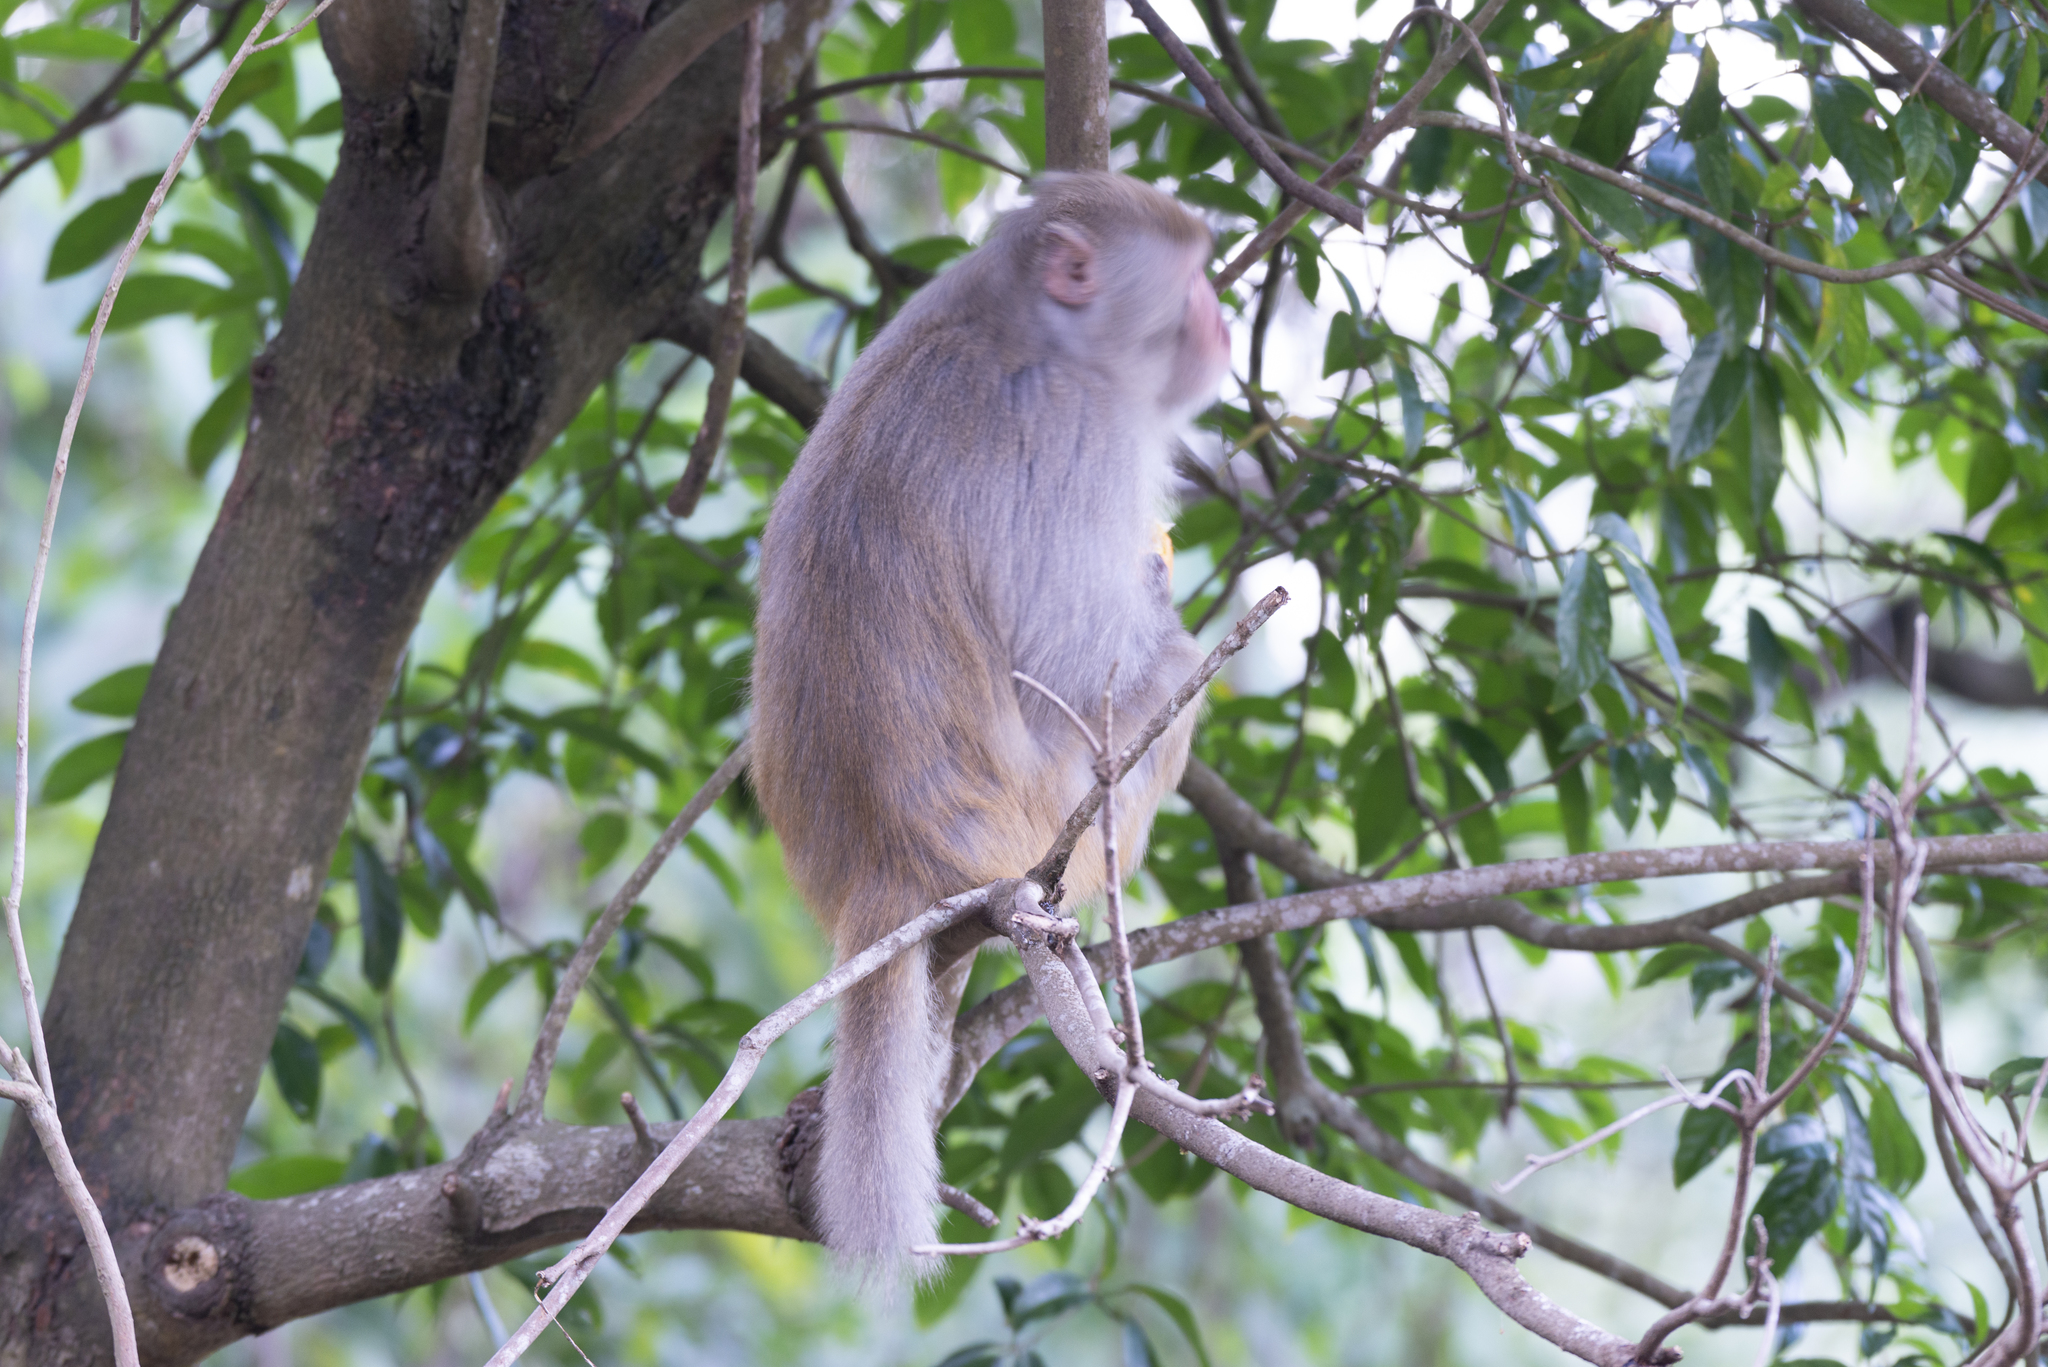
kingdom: Animalia
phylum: Chordata
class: Mammalia
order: Primates
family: Cercopithecidae
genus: Macaca
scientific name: Macaca mulatta
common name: Rhesus monkey
